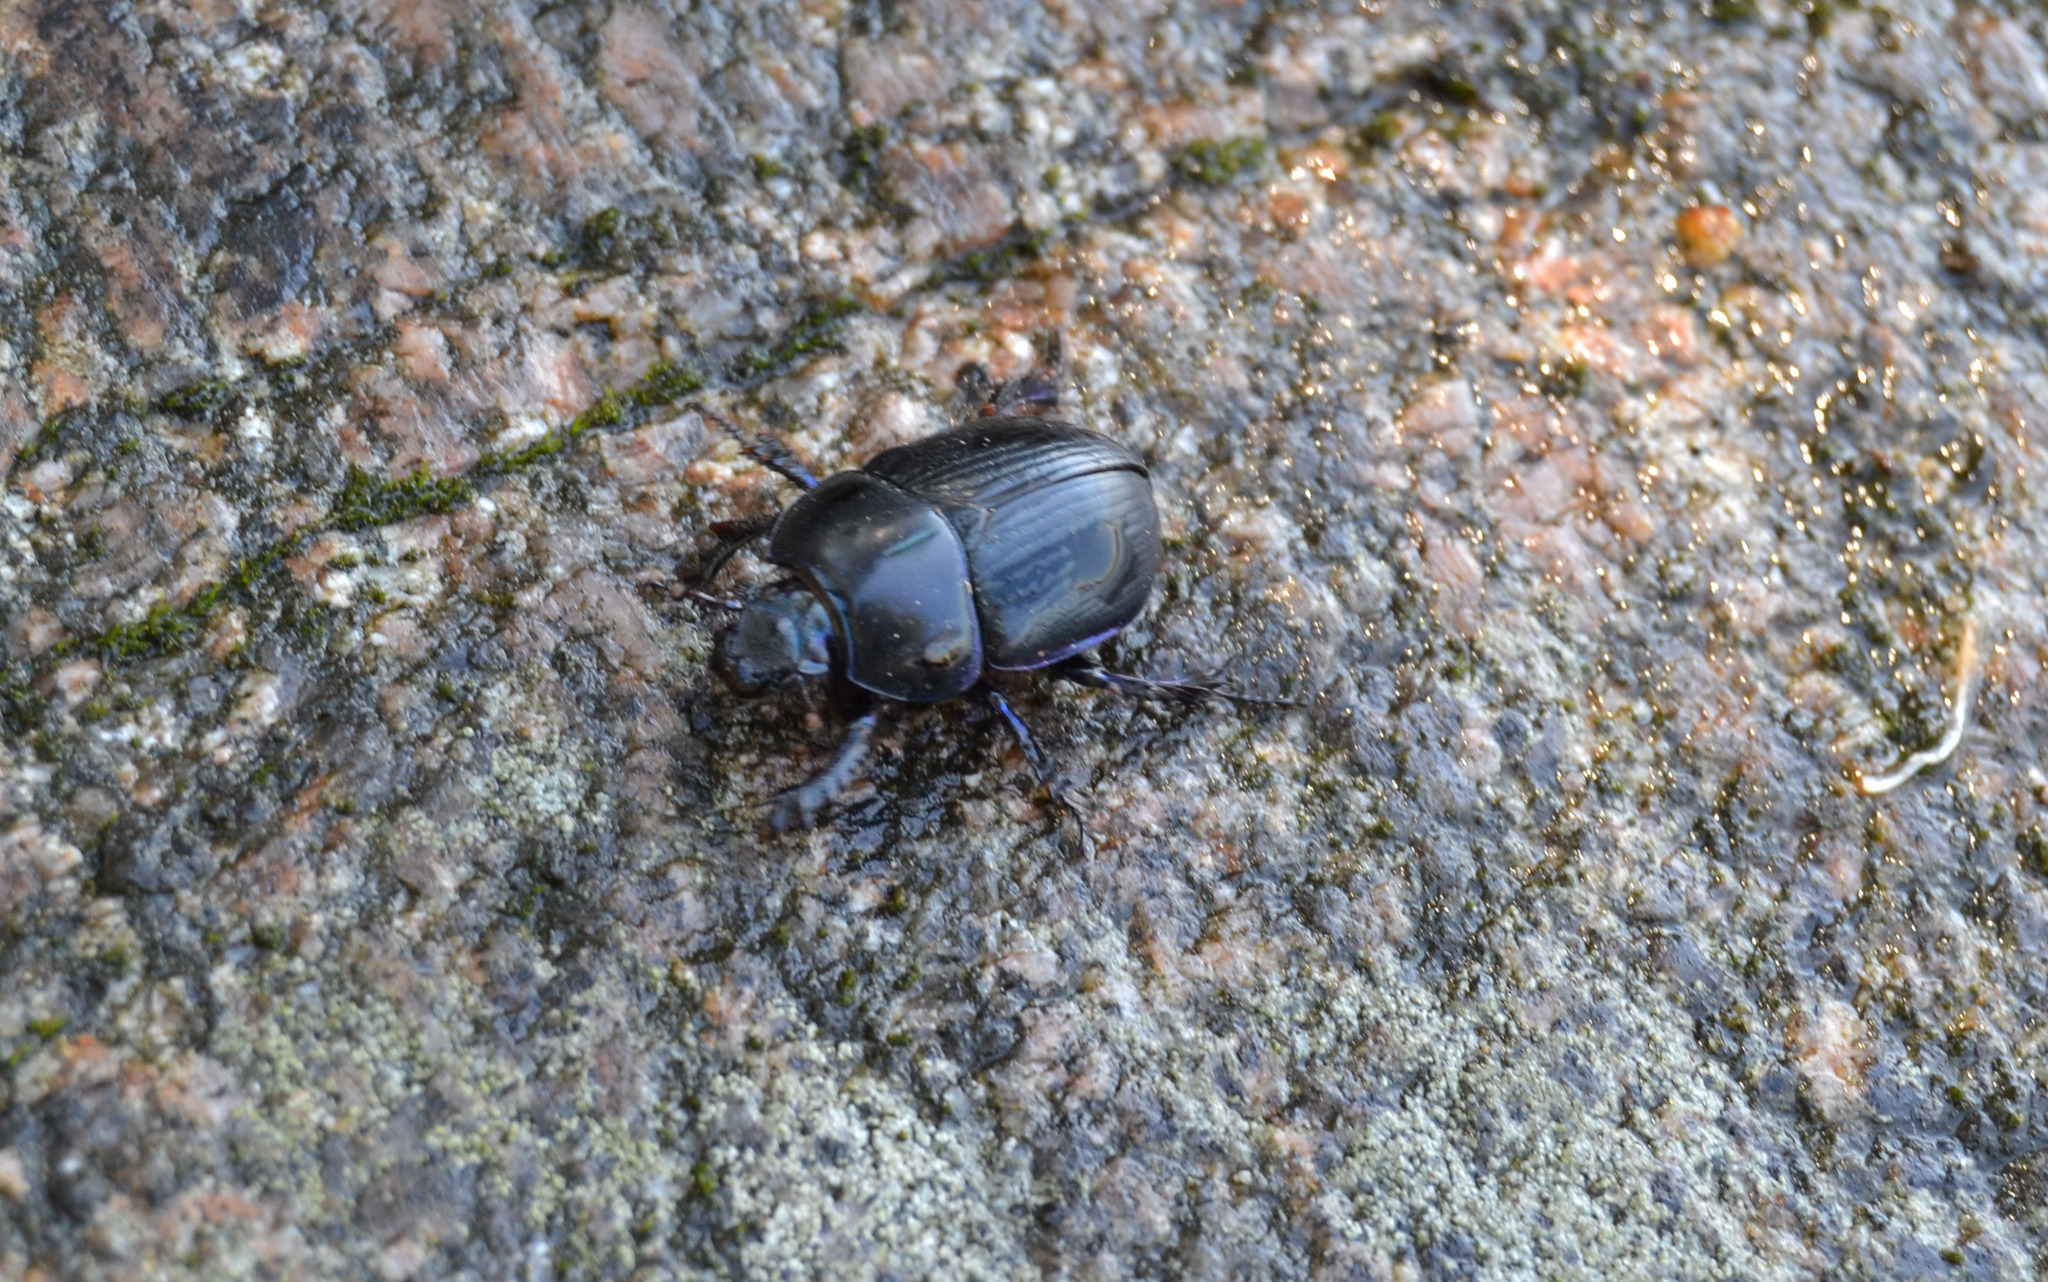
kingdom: Animalia
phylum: Arthropoda
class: Insecta
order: Coleoptera
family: Geotrupidae
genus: Anoplotrupes
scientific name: Anoplotrupes stercorosus
